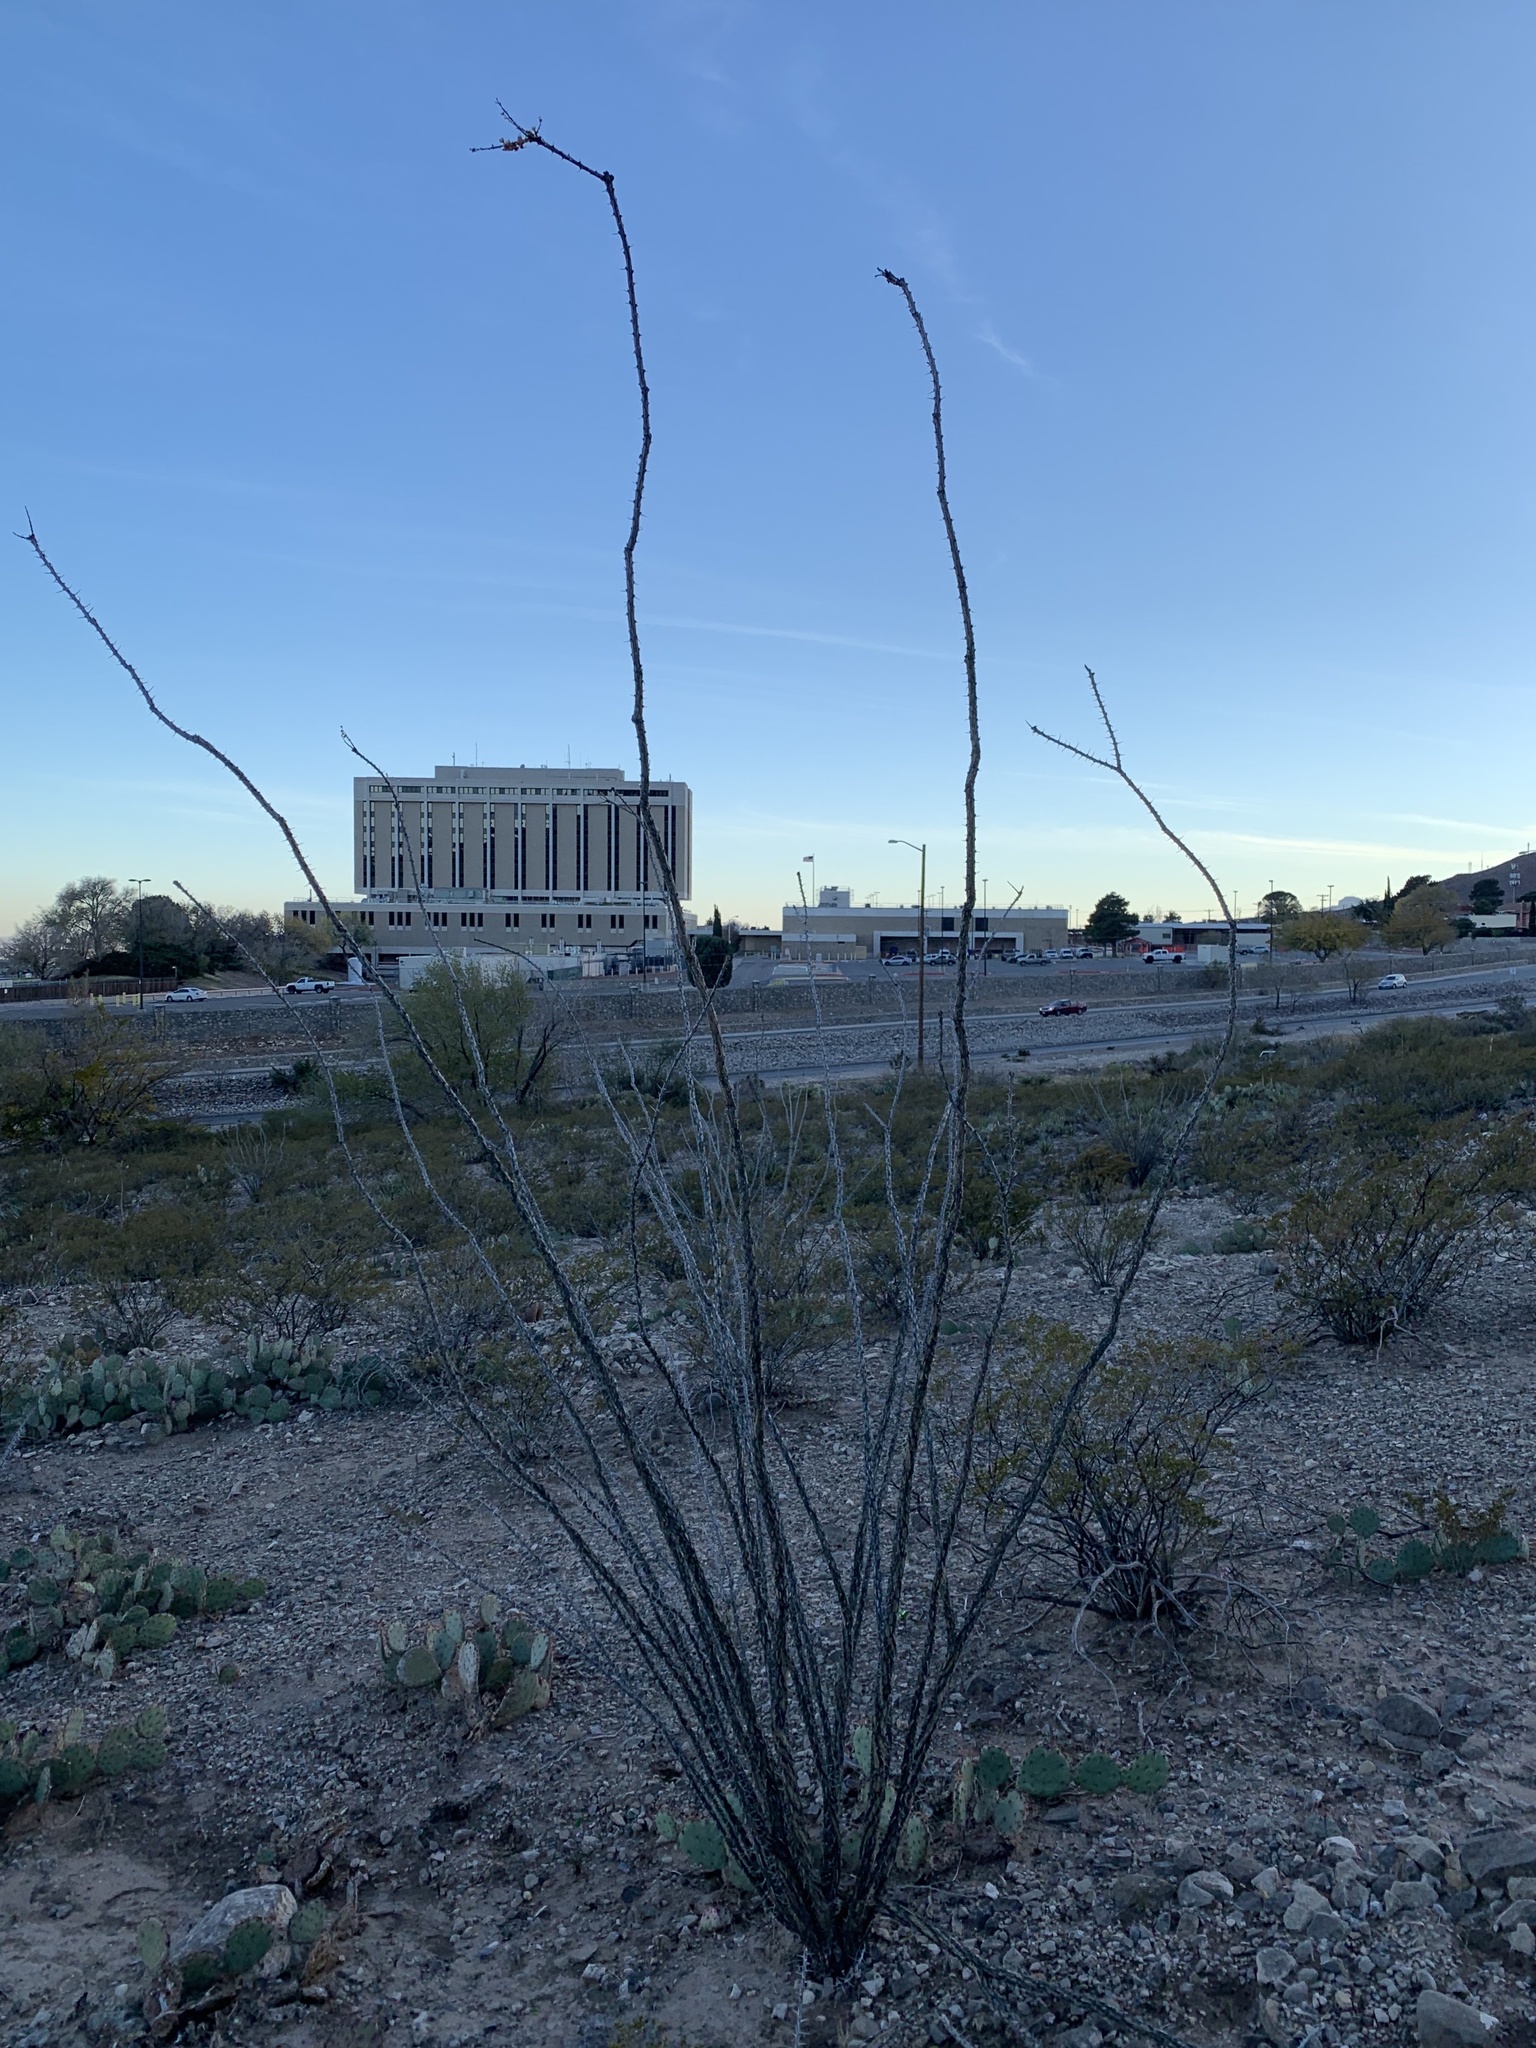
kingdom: Plantae
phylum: Tracheophyta
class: Magnoliopsida
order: Ericales
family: Fouquieriaceae
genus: Fouquieria
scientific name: Fouquieria splendens
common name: Vine-cactus
